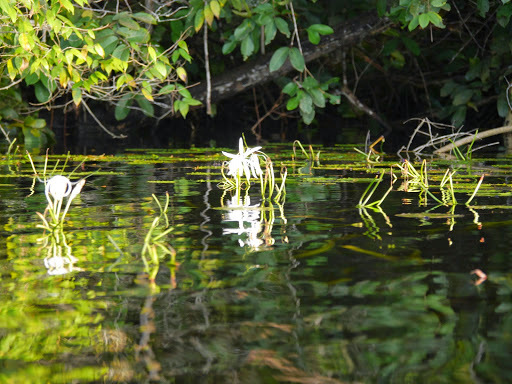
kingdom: Plantae
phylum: Tracheophyta
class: Liliopsida
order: Asparagales
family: Amaryllidaceae
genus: Crinum
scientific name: Crinum natans
